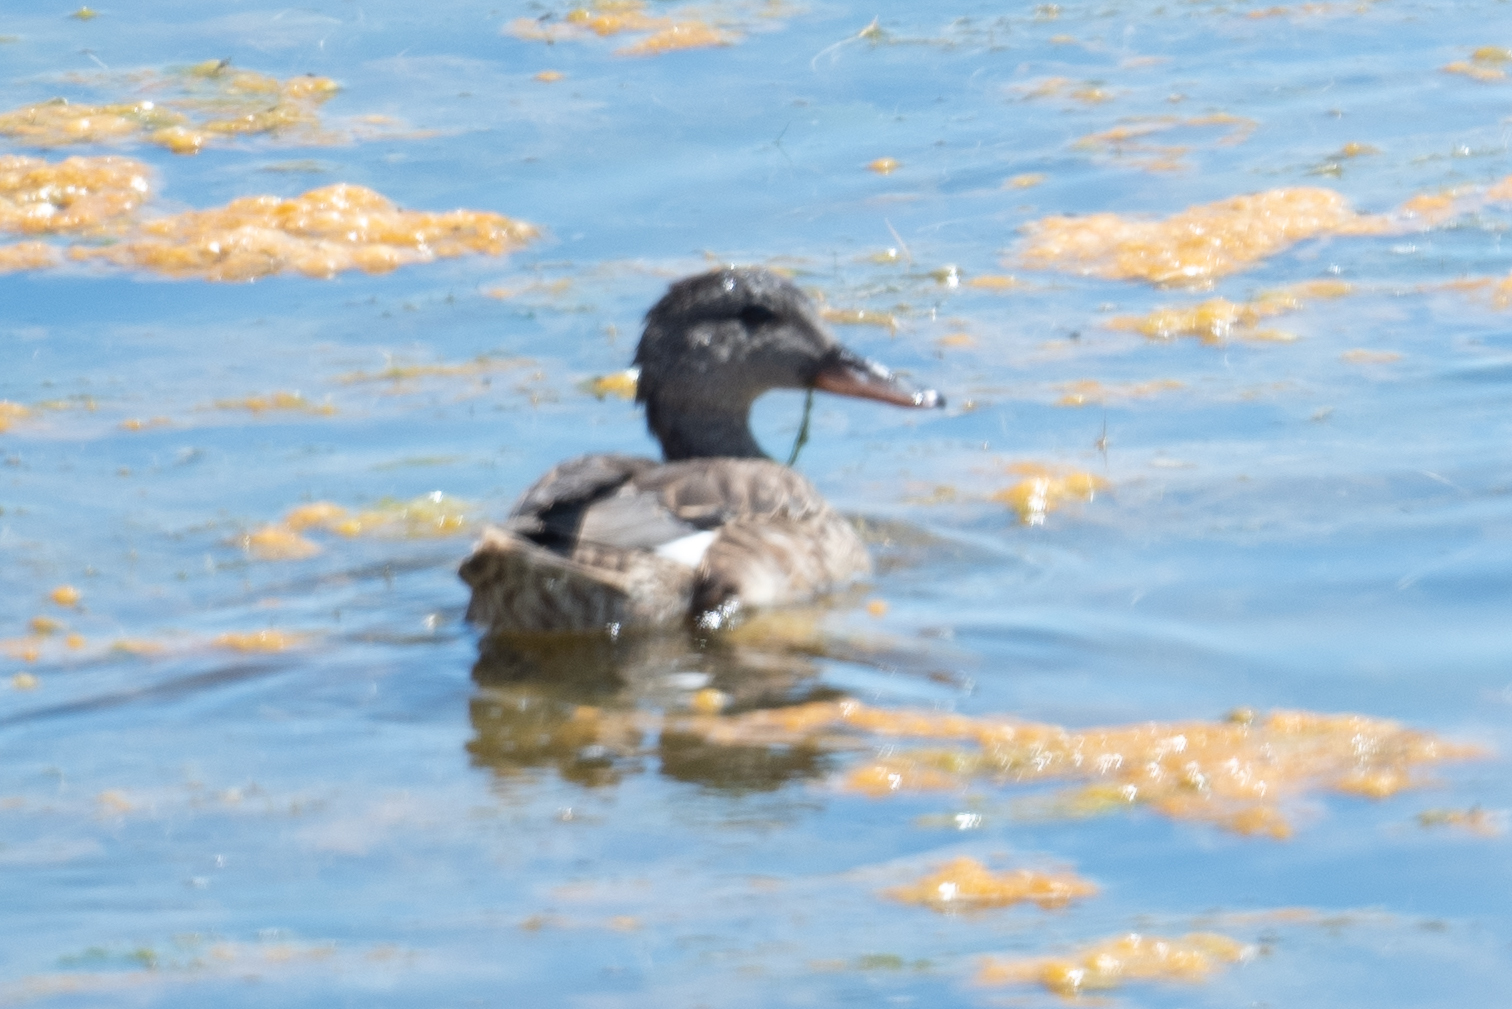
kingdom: Animalia
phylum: Chordata
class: Aves
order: Anseriformes
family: Anatidae
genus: Mareca
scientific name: Mareca strepera
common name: Gadwall
